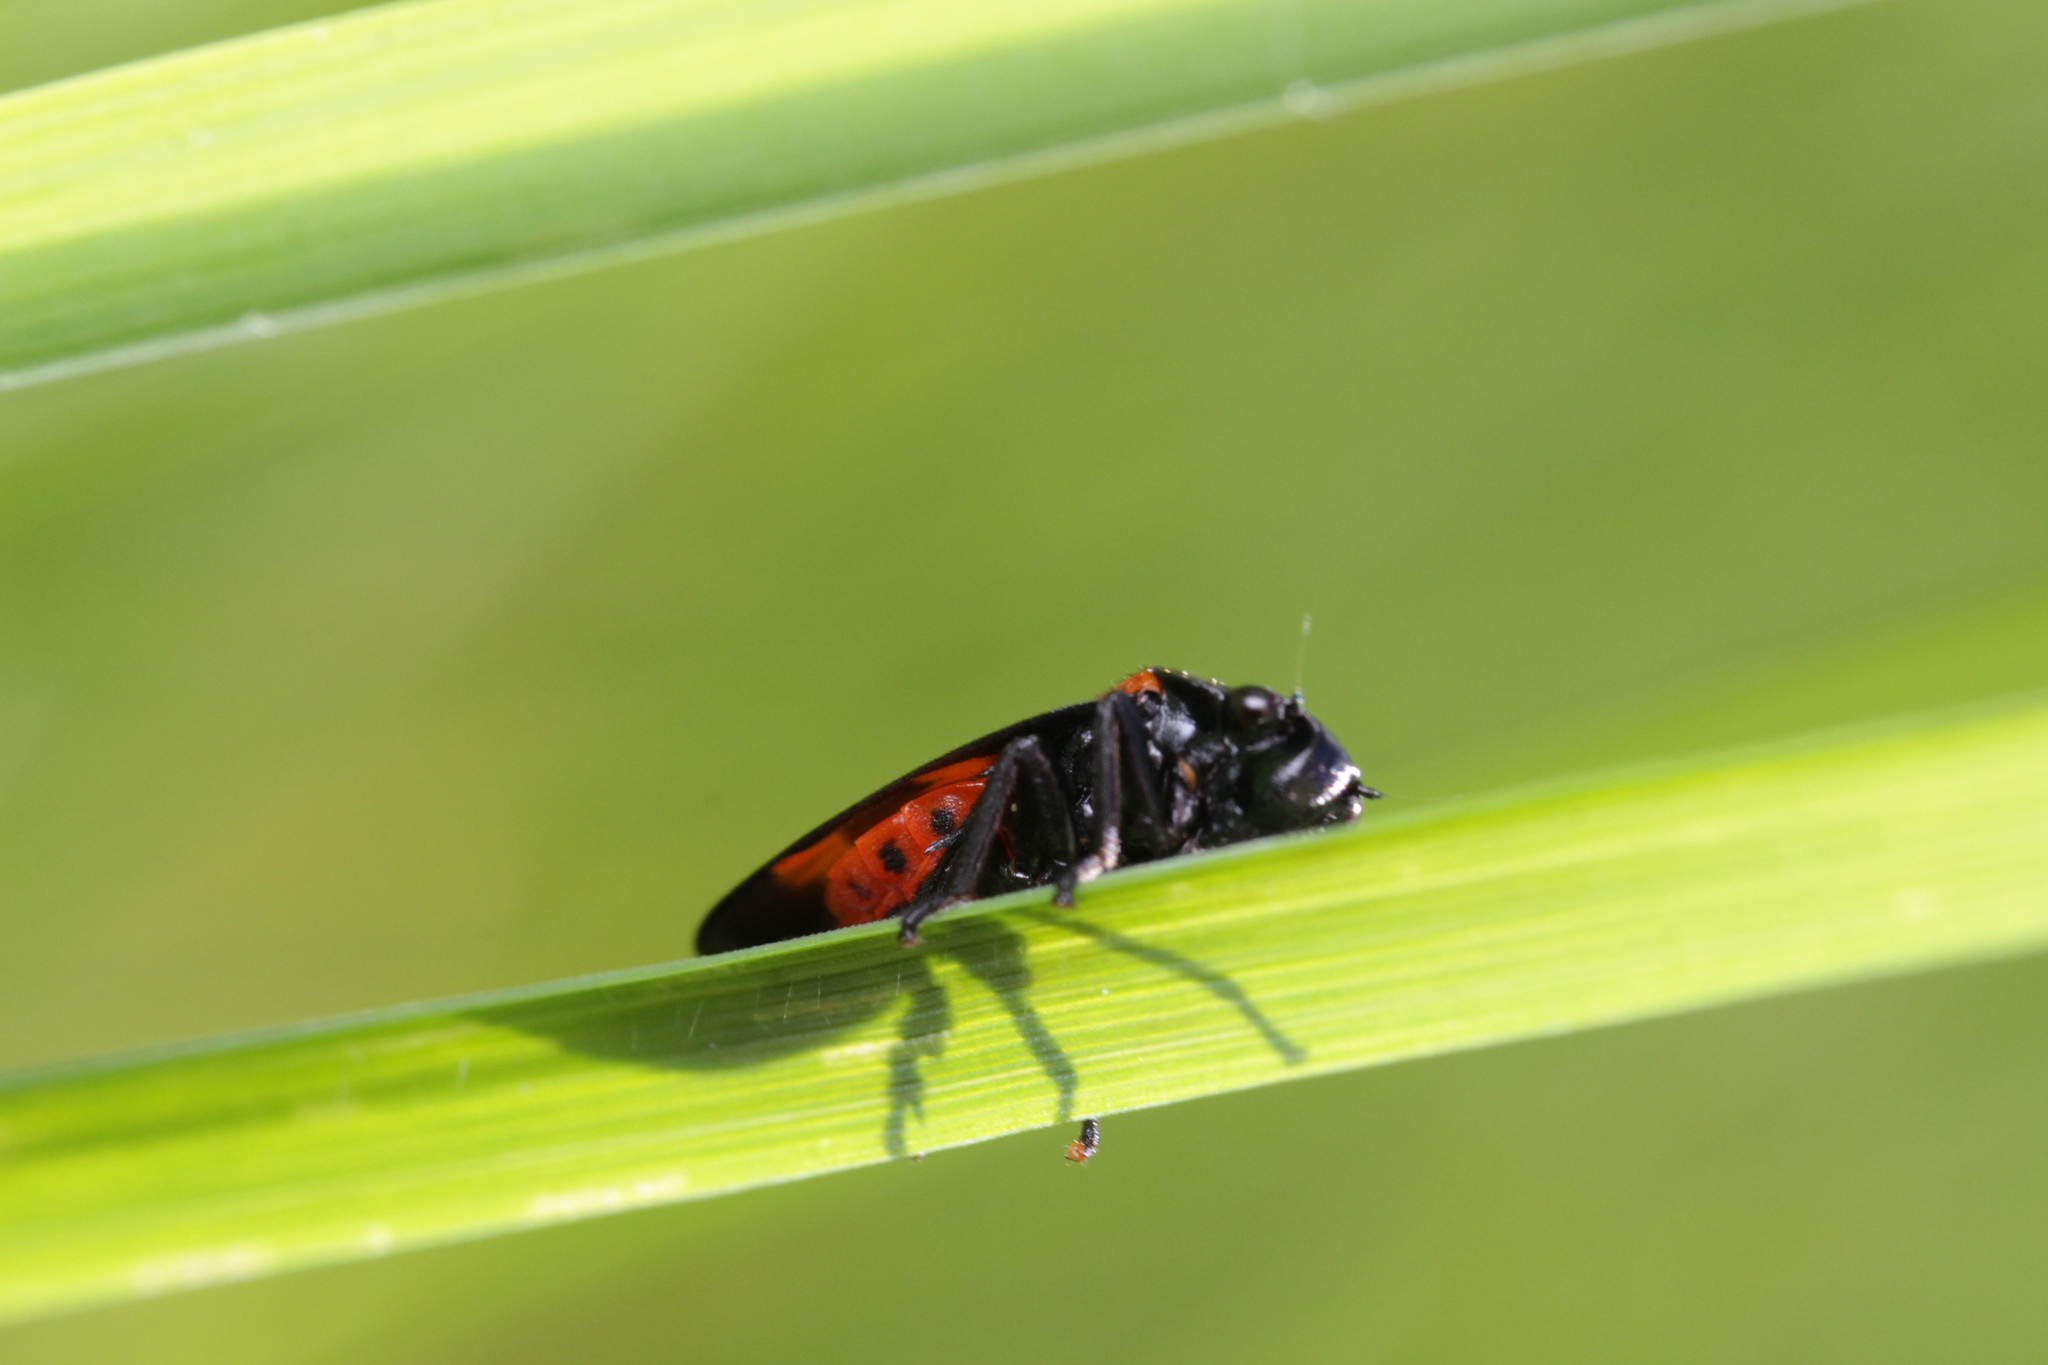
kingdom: Animalia
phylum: Arthropoda
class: Insecta
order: Hemiptera
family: Cercopidae
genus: Cercopis
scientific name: Cercopis sanguinolenta
